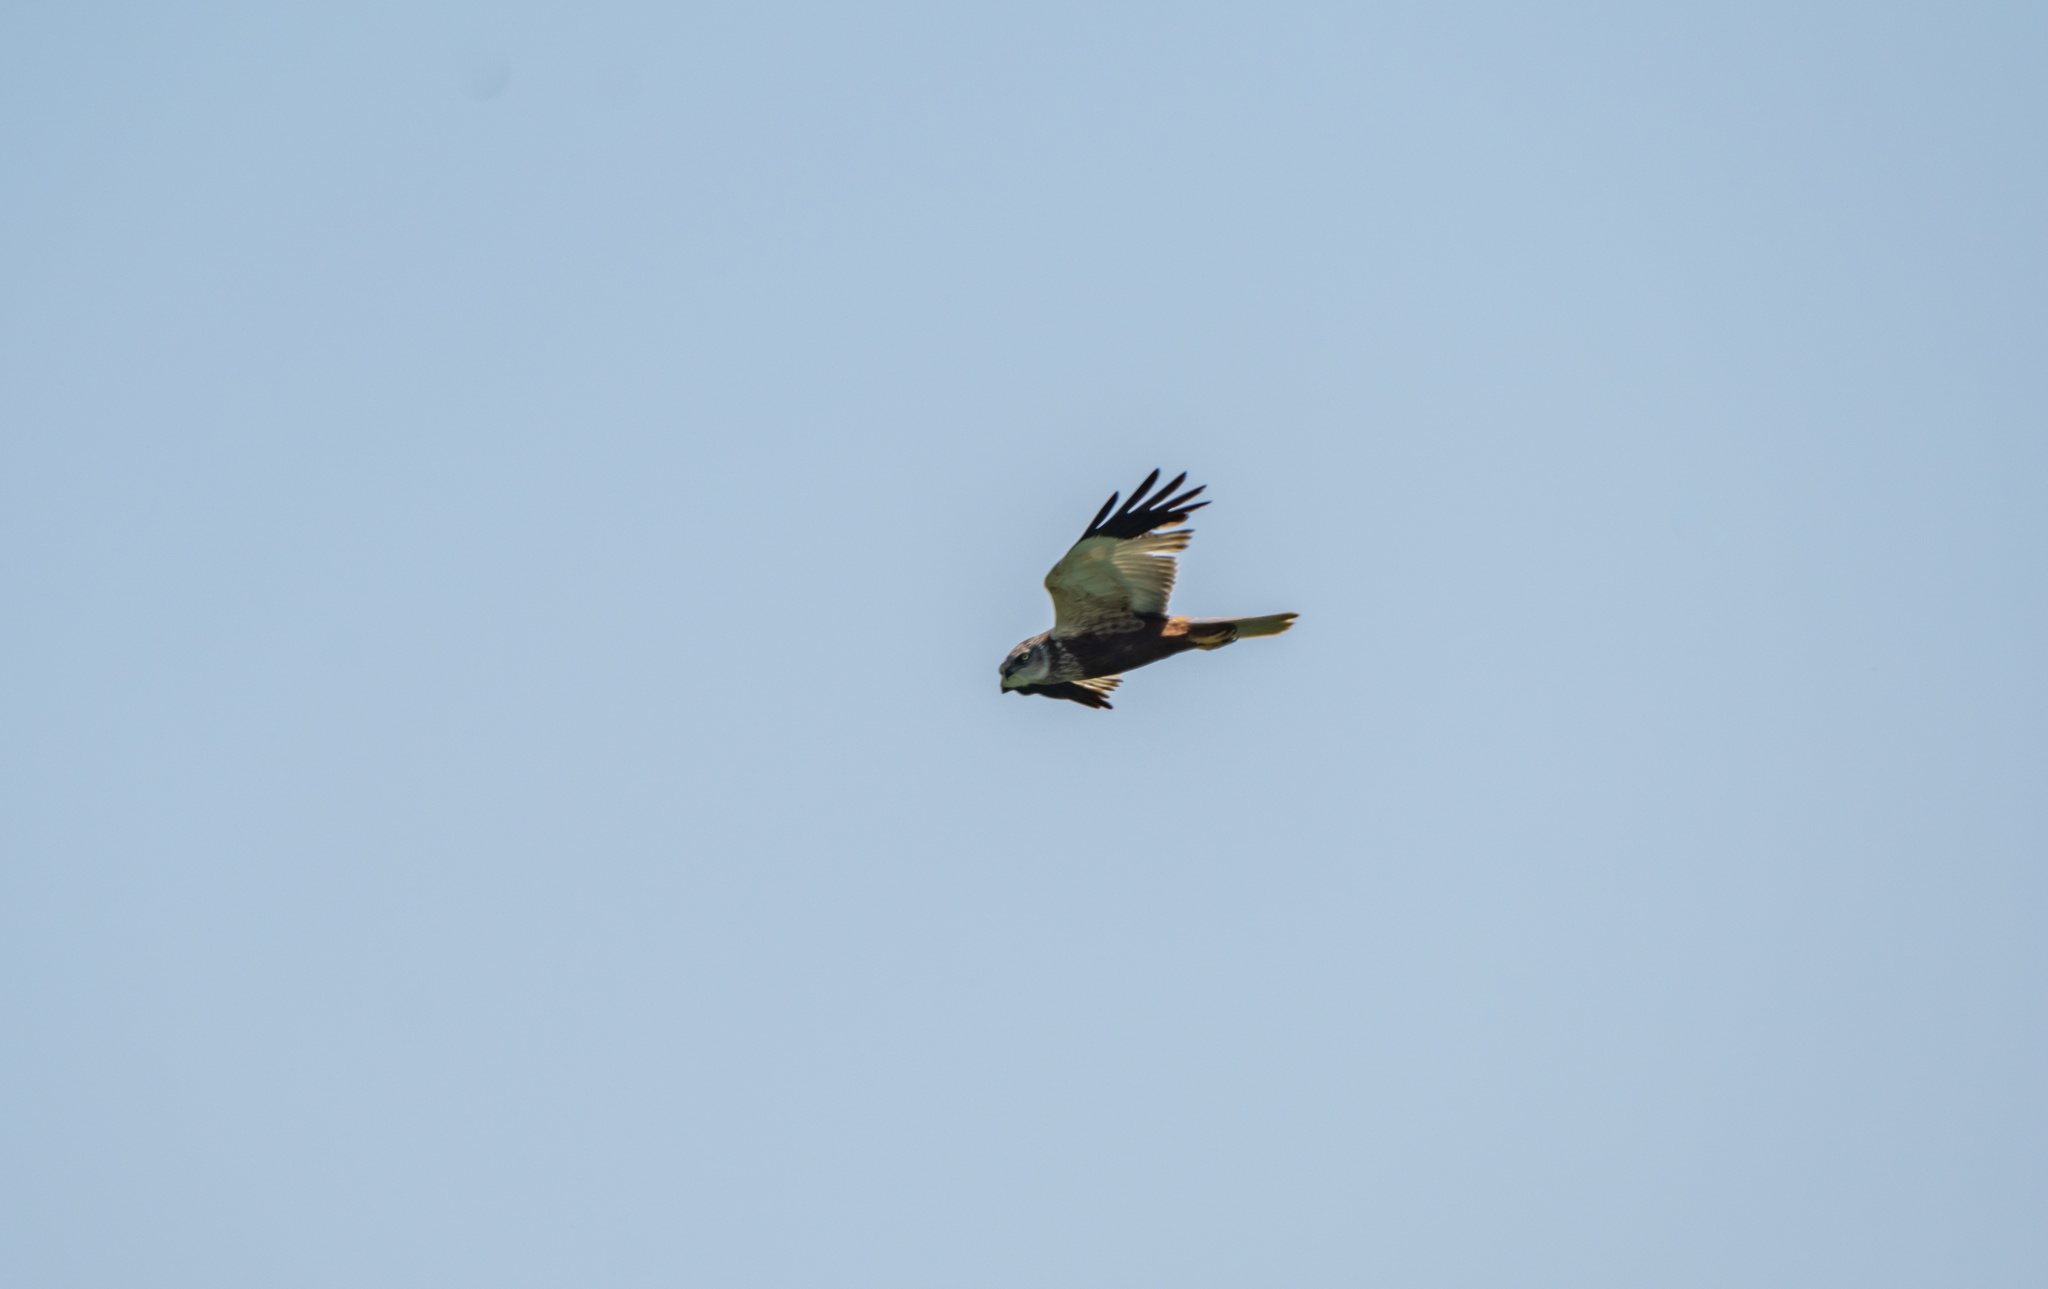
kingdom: Animalia
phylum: Chordata
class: Aves
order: Accipitriformes
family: Accipitridae
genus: Circus
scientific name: Circus aeruginosus
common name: Western marsh harrier
